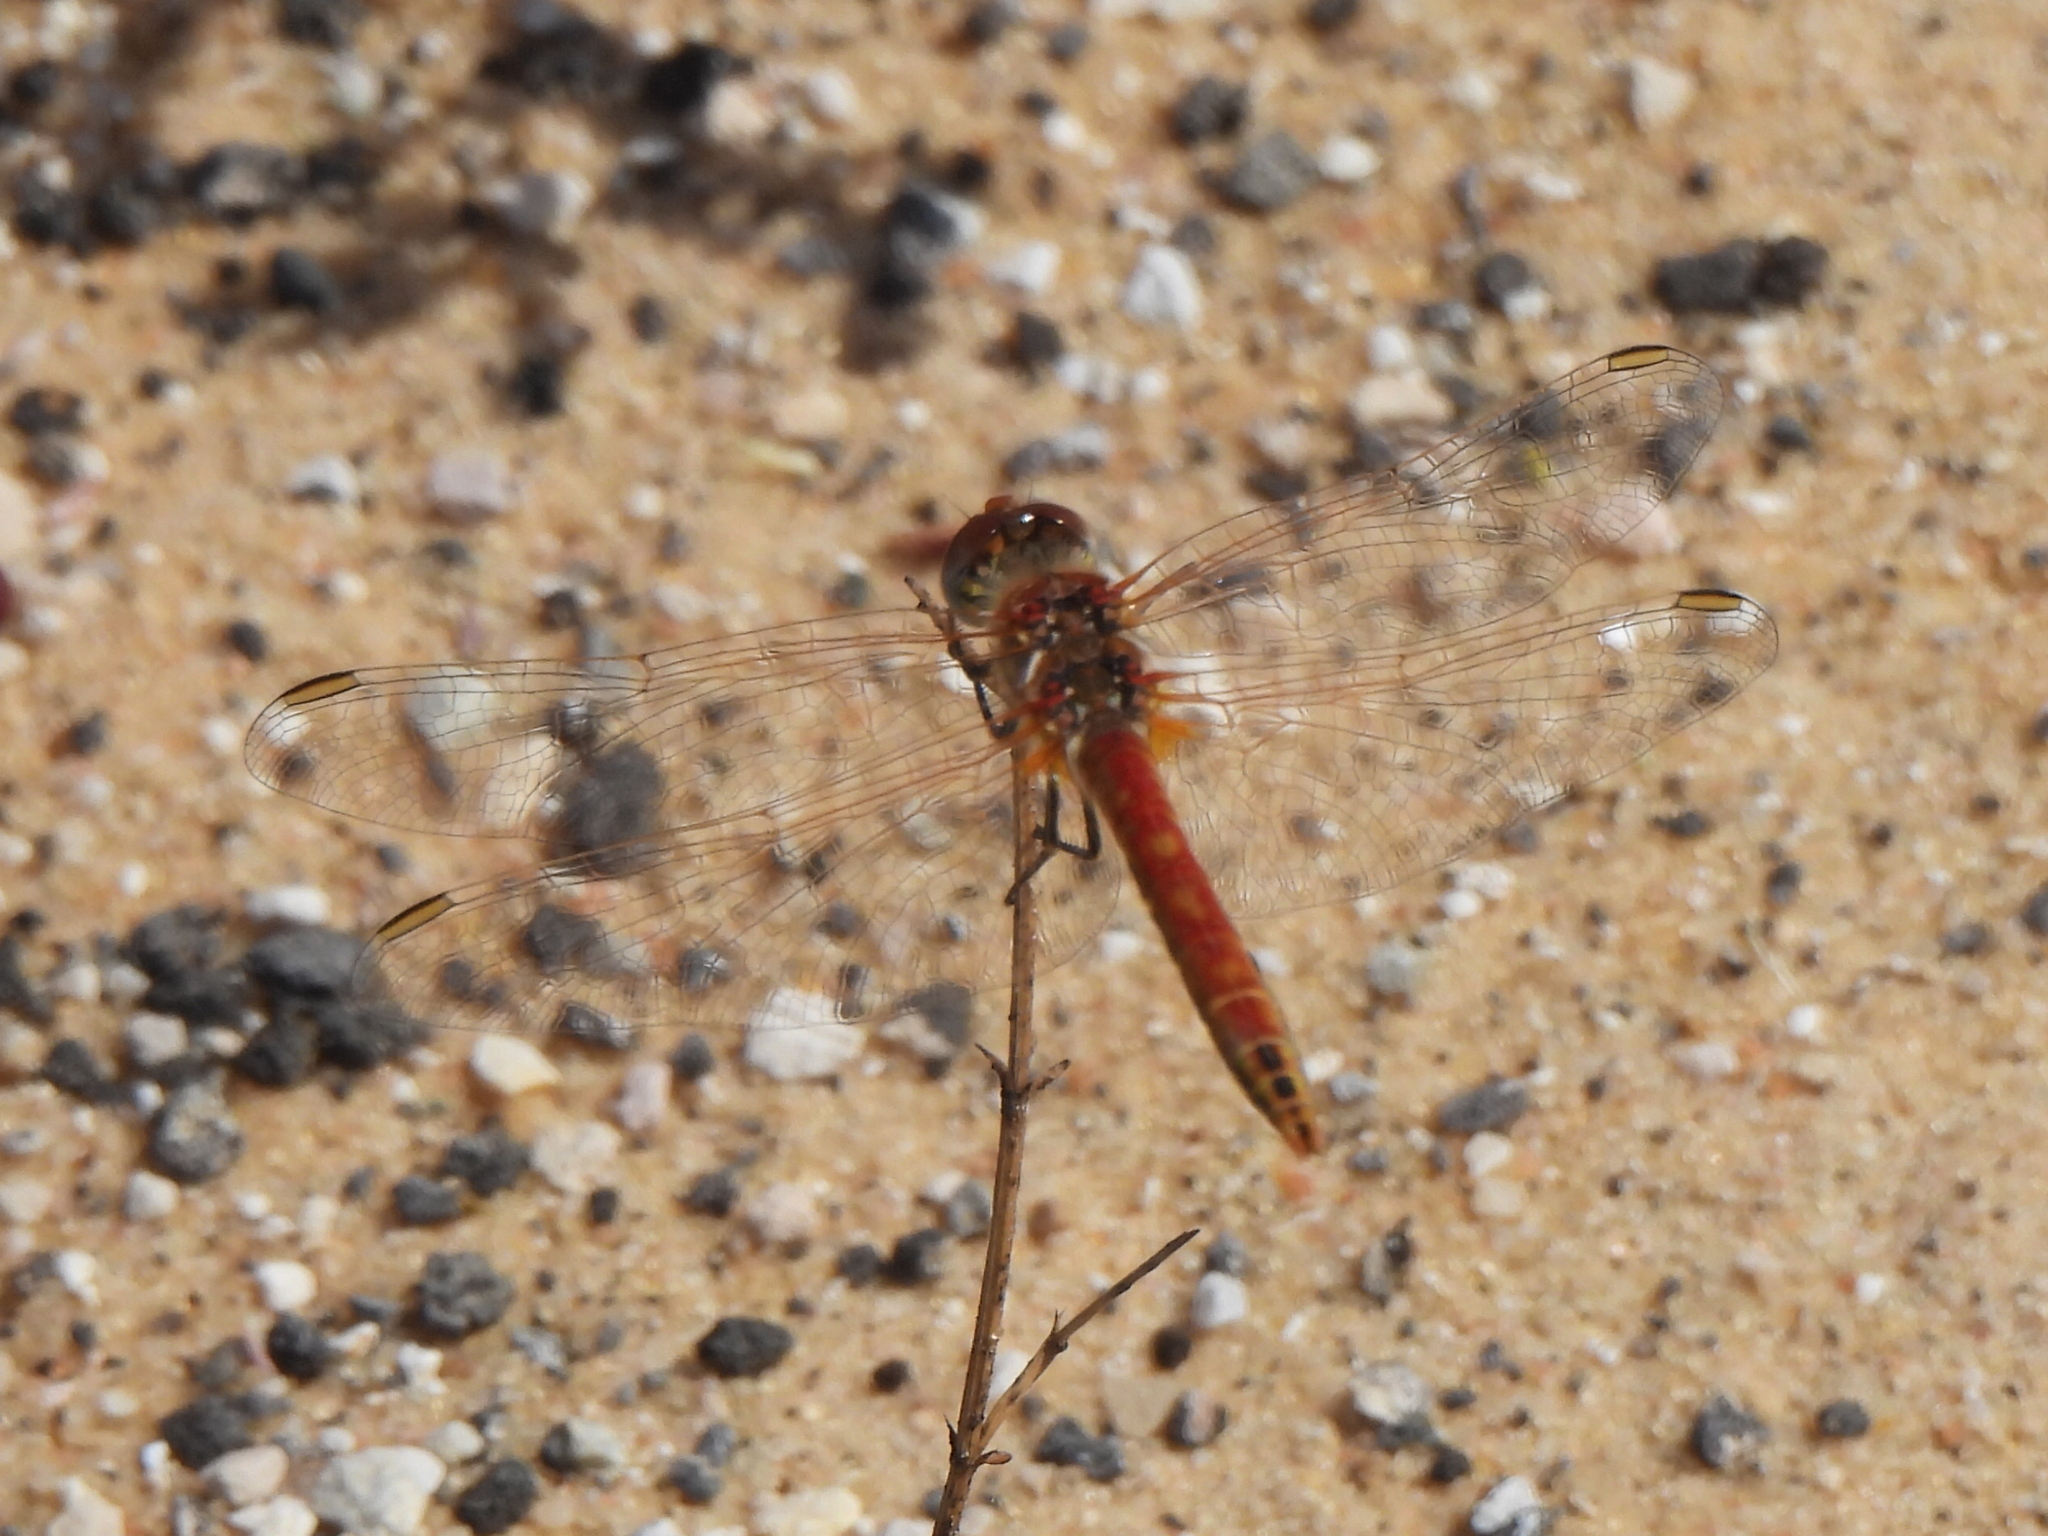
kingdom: Animalia
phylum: Arthropoda
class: Insecta
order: Odonata
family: Libellulidae
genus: Sympetrum
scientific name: Sympetrum fonscolombii
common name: Red-veined darter
